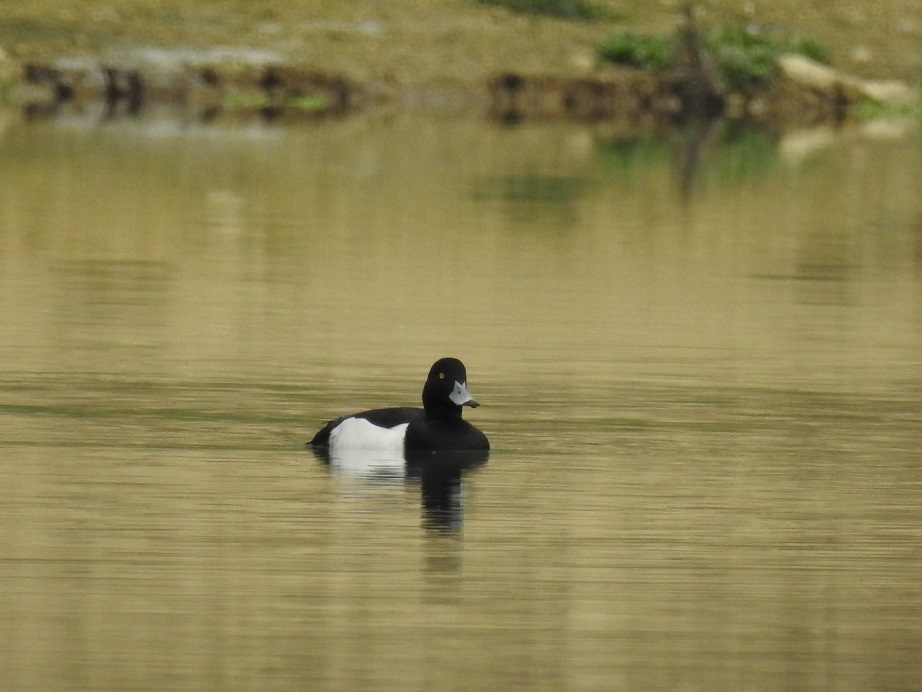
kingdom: Animalia
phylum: Chordata
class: Aves
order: Anseriformes
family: Anatidae
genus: Aythya
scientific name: Aythya fuligula
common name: Tufted duck
